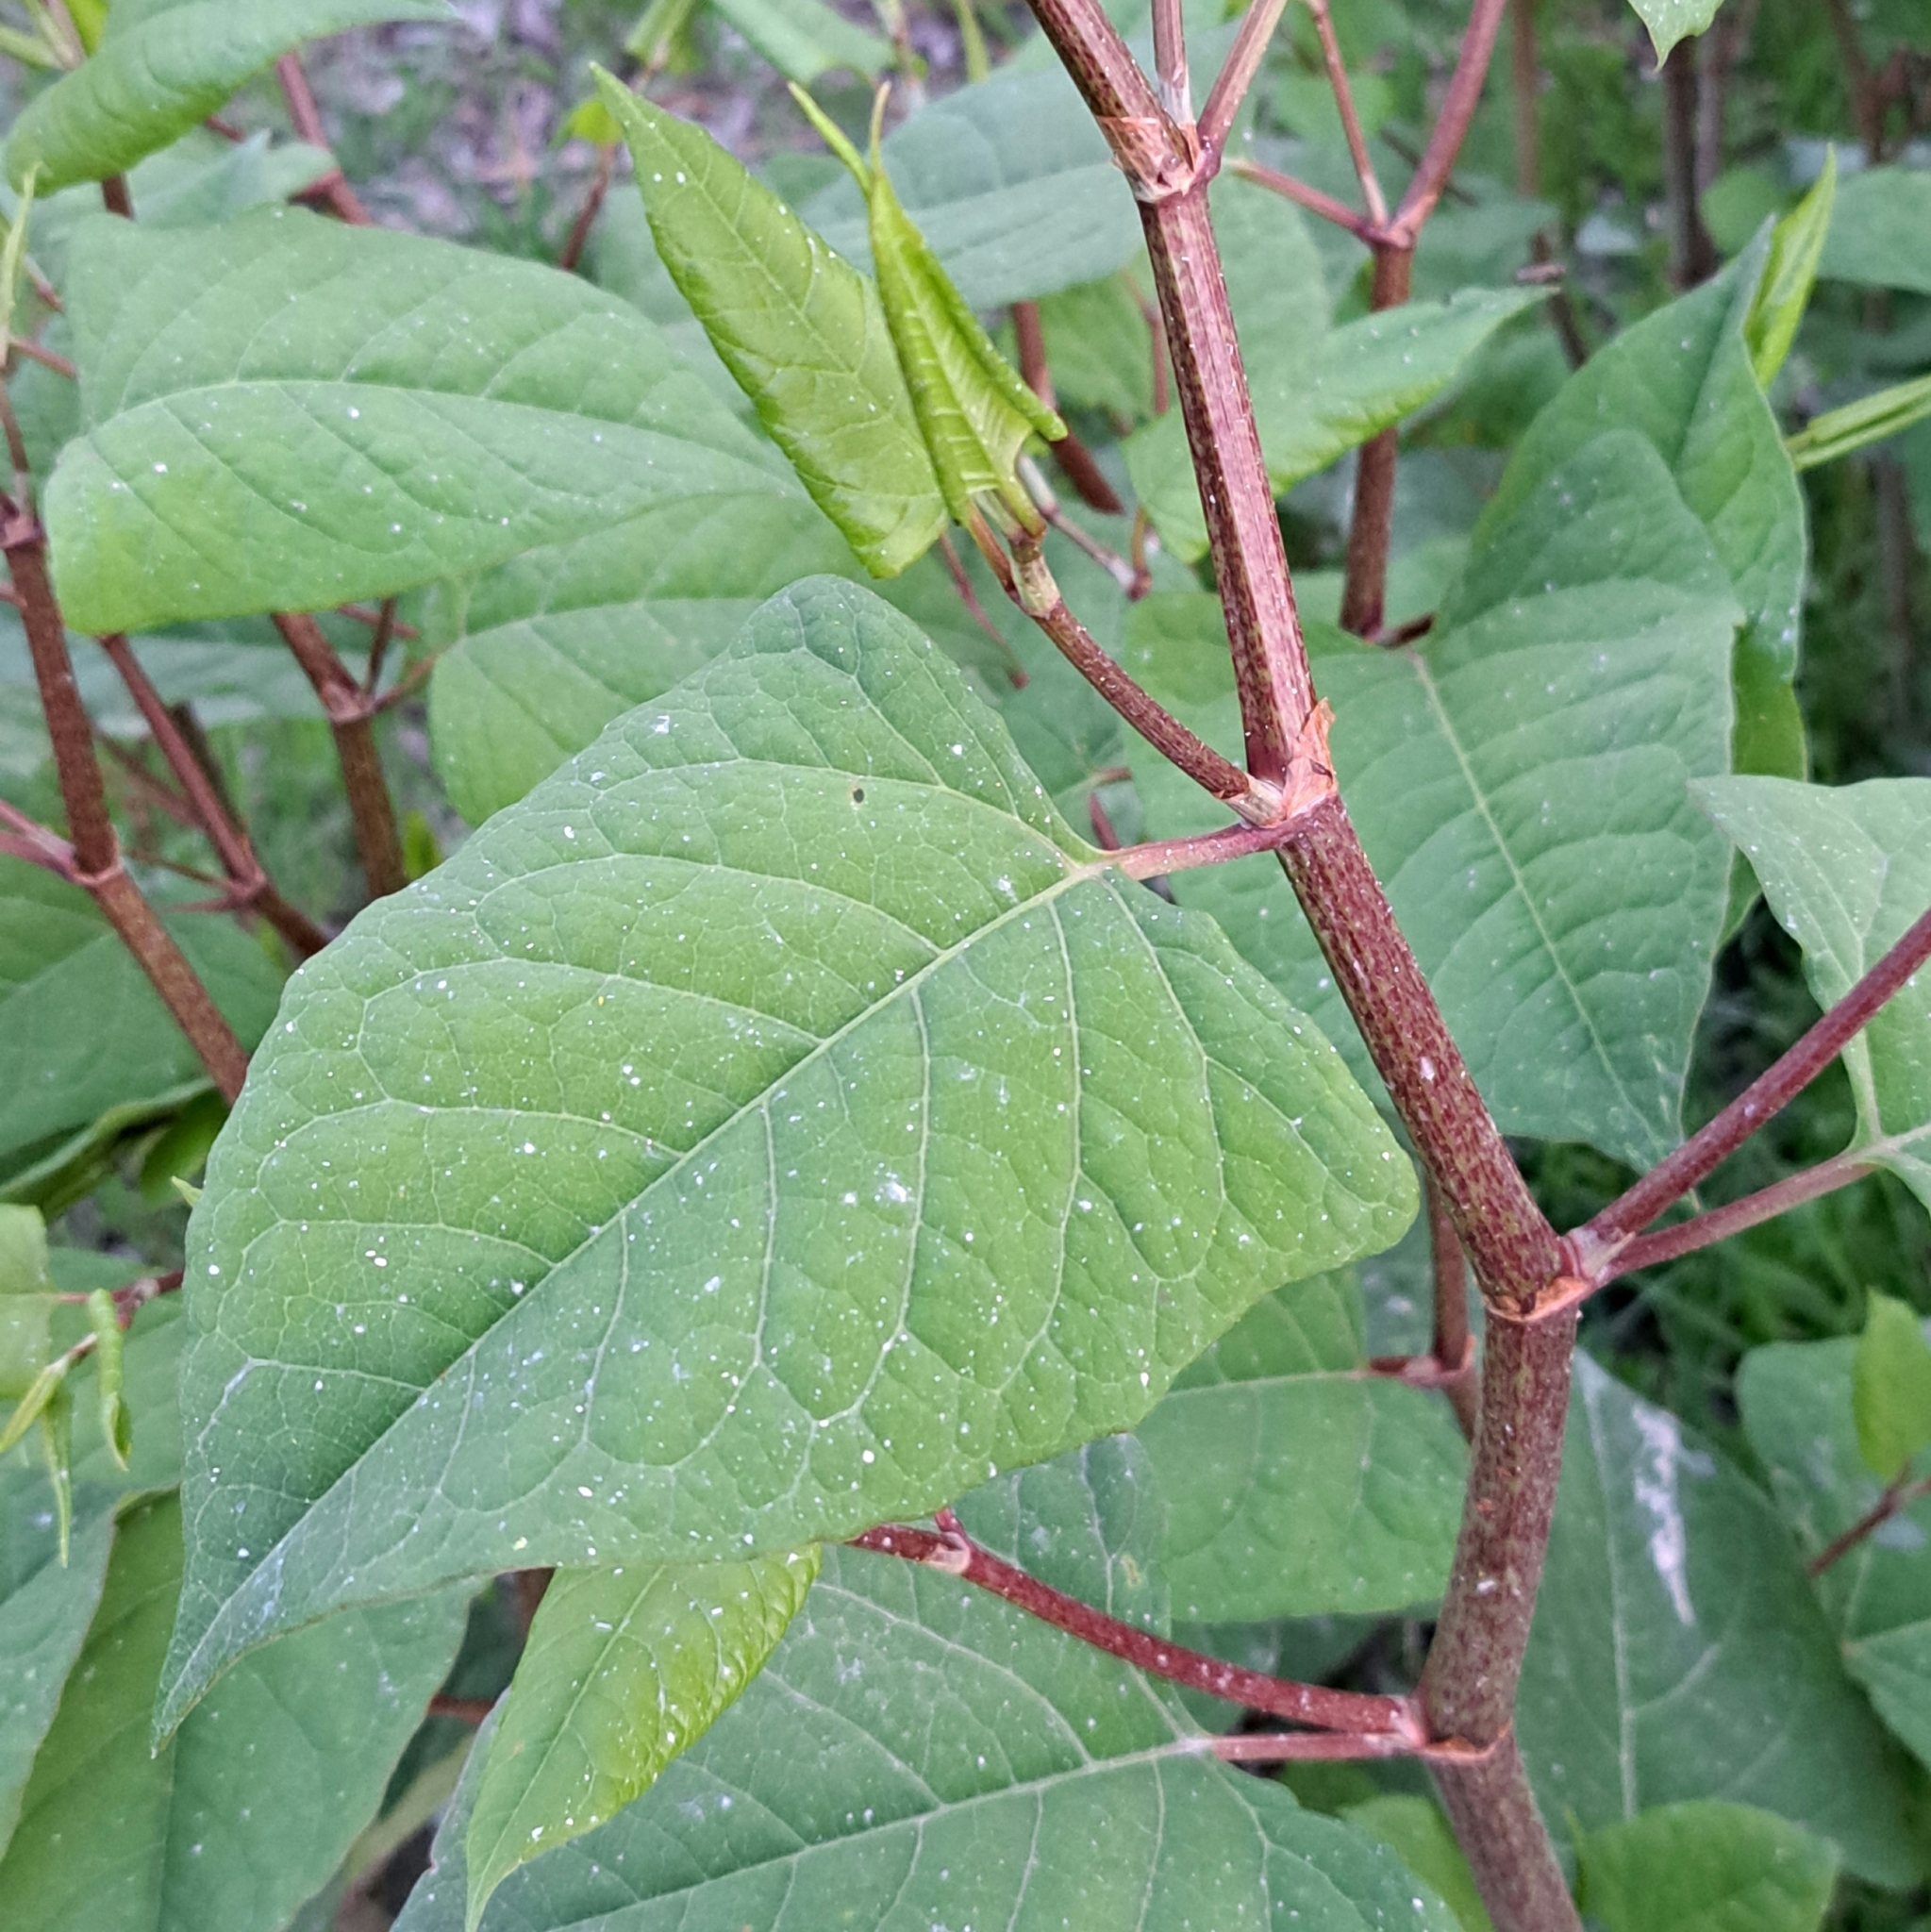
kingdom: Plantae
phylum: Tracheophyta
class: Magnoliopsida
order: Caryophyllales
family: Polygonaceae
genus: Reynoutria
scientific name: Reynoutria japonica
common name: Japanese knotweed
